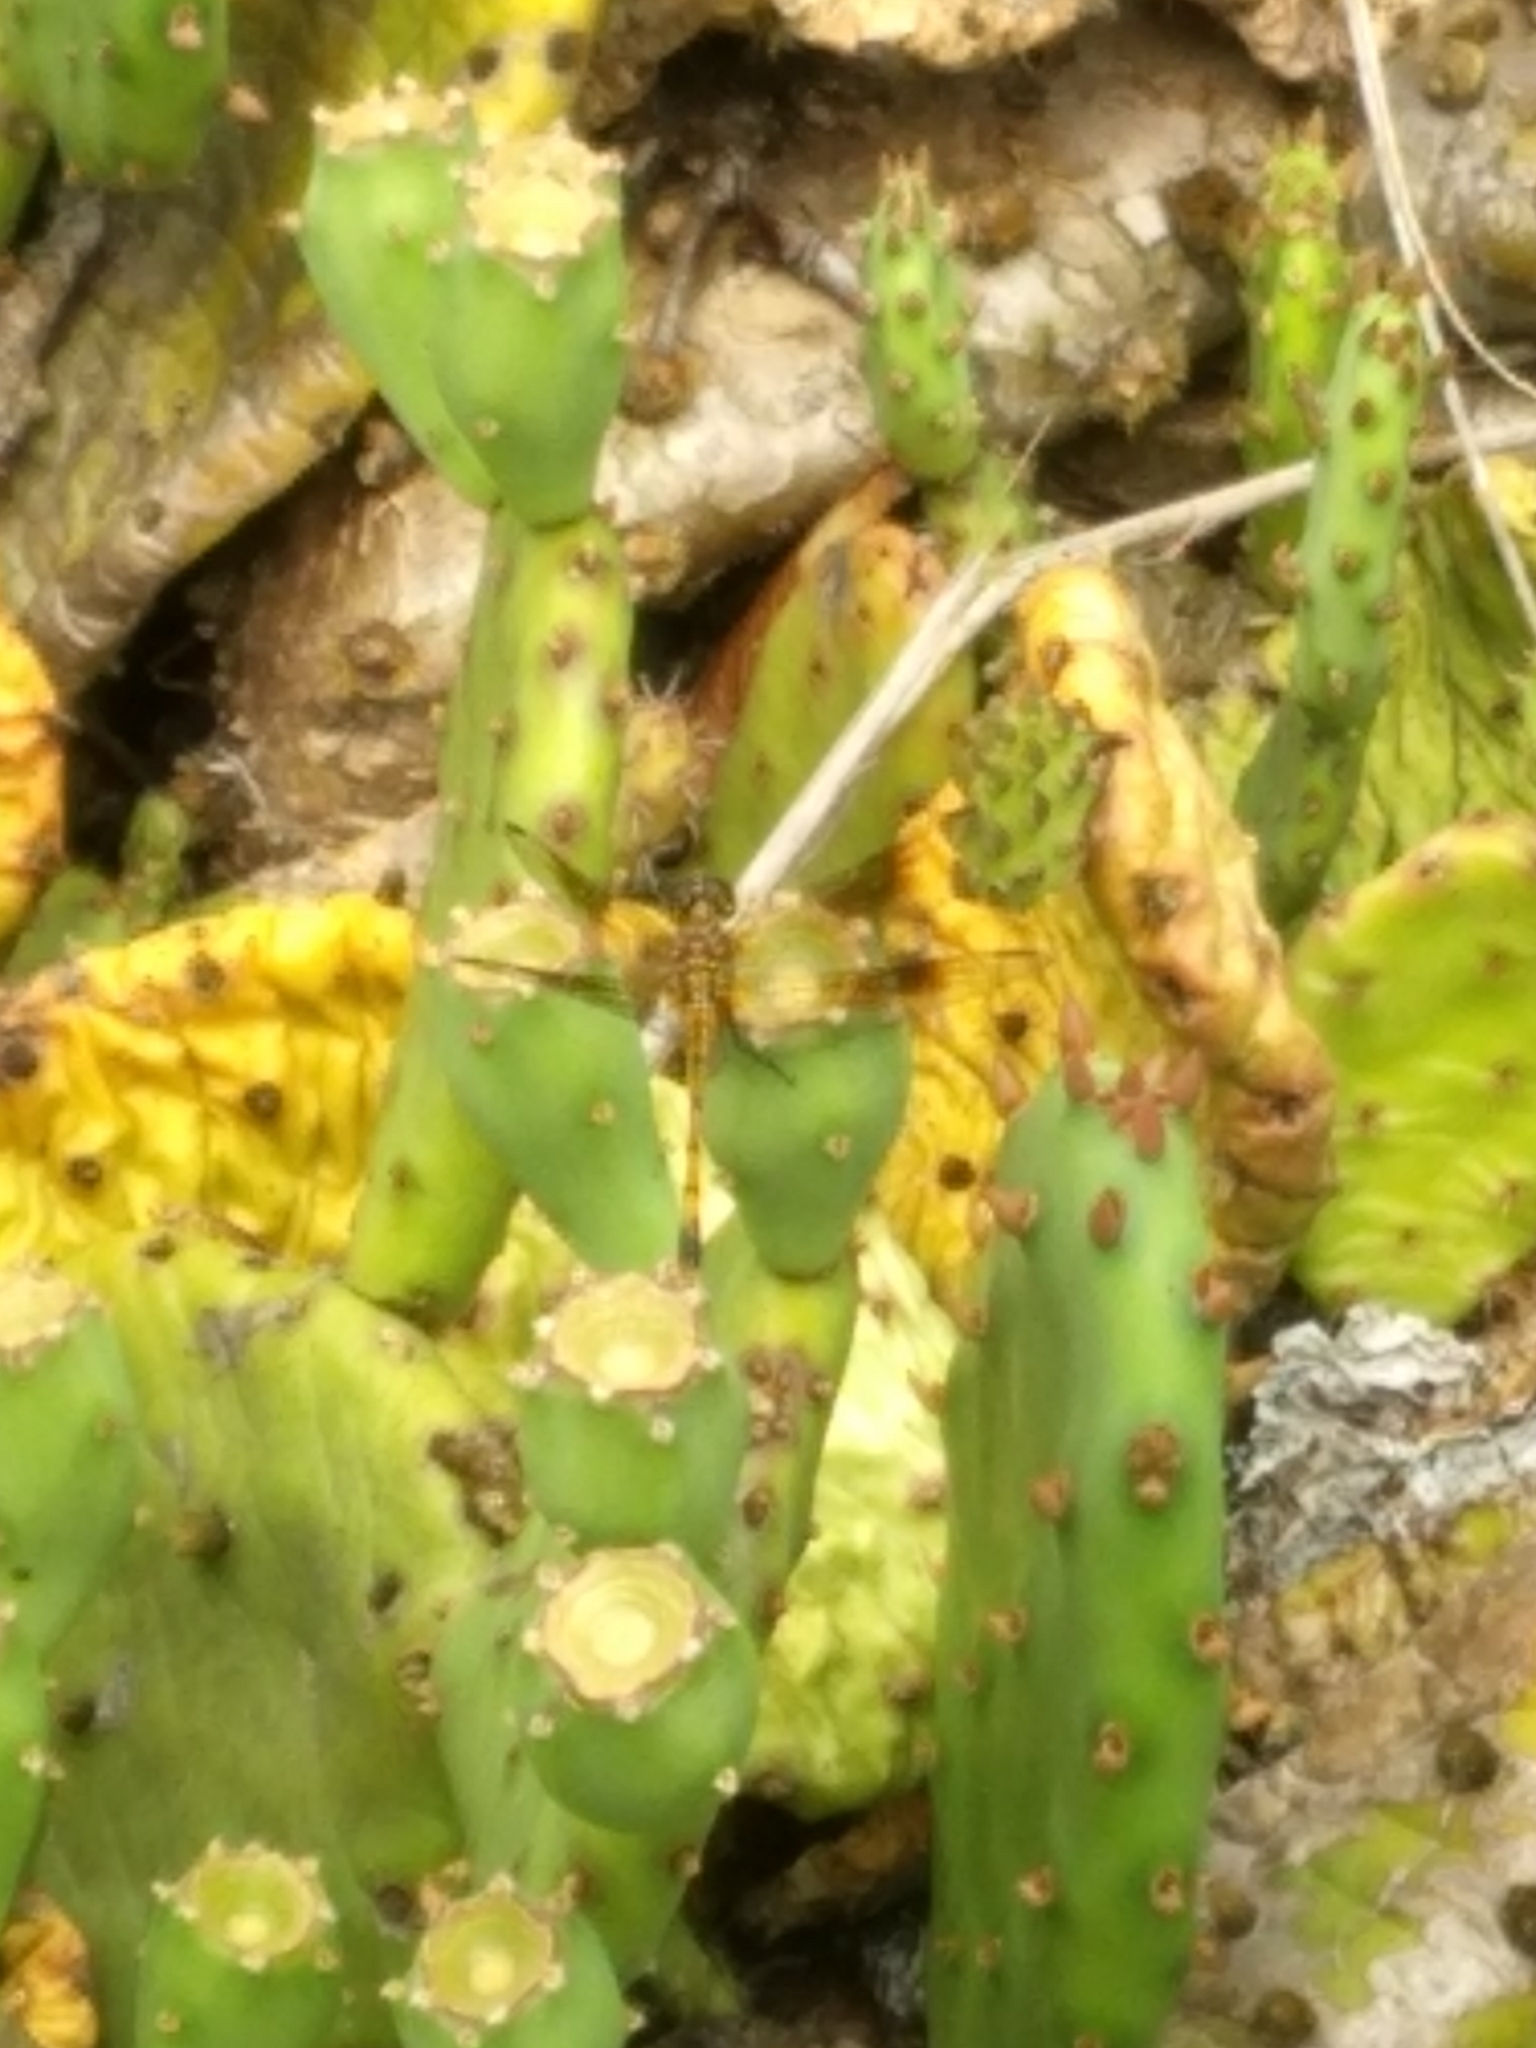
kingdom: Plantae
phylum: Tracheophyta
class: Magnoliopsida
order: Caryophyllales
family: Cactaceae
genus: Opuntia
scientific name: Opuntia humifusa
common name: Eastern prickly-pear
